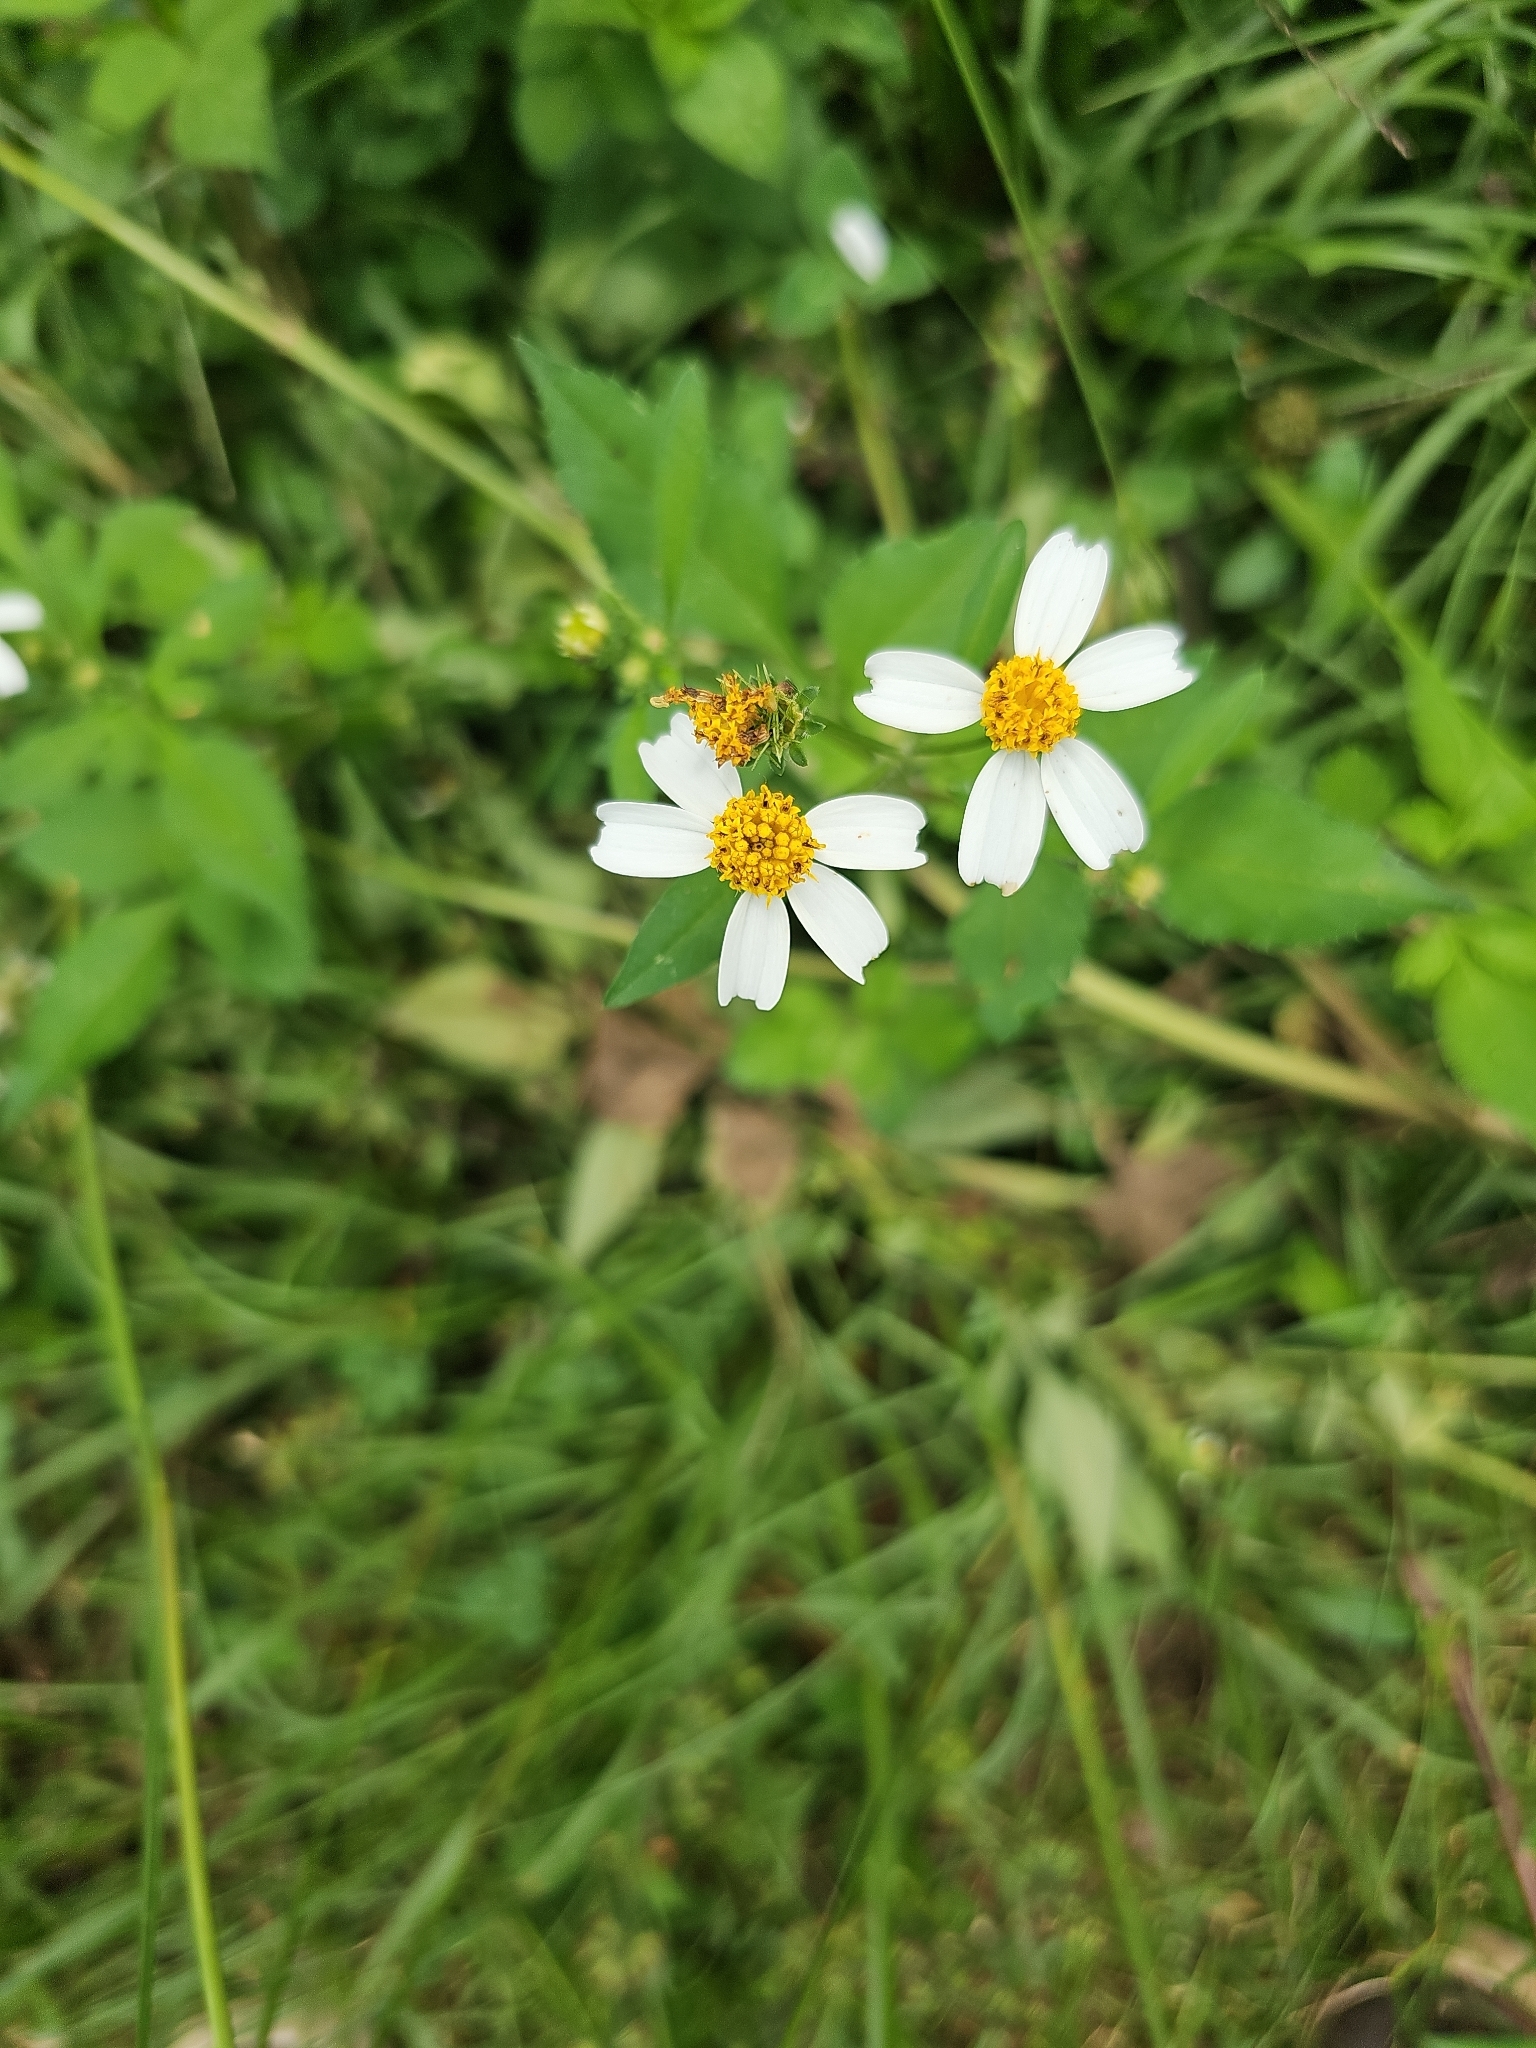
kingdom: Plantae
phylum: Tracheophyta
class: Magnoliopsida
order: Asterales
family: Asteraceae
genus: Bidens
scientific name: Bidens alba
